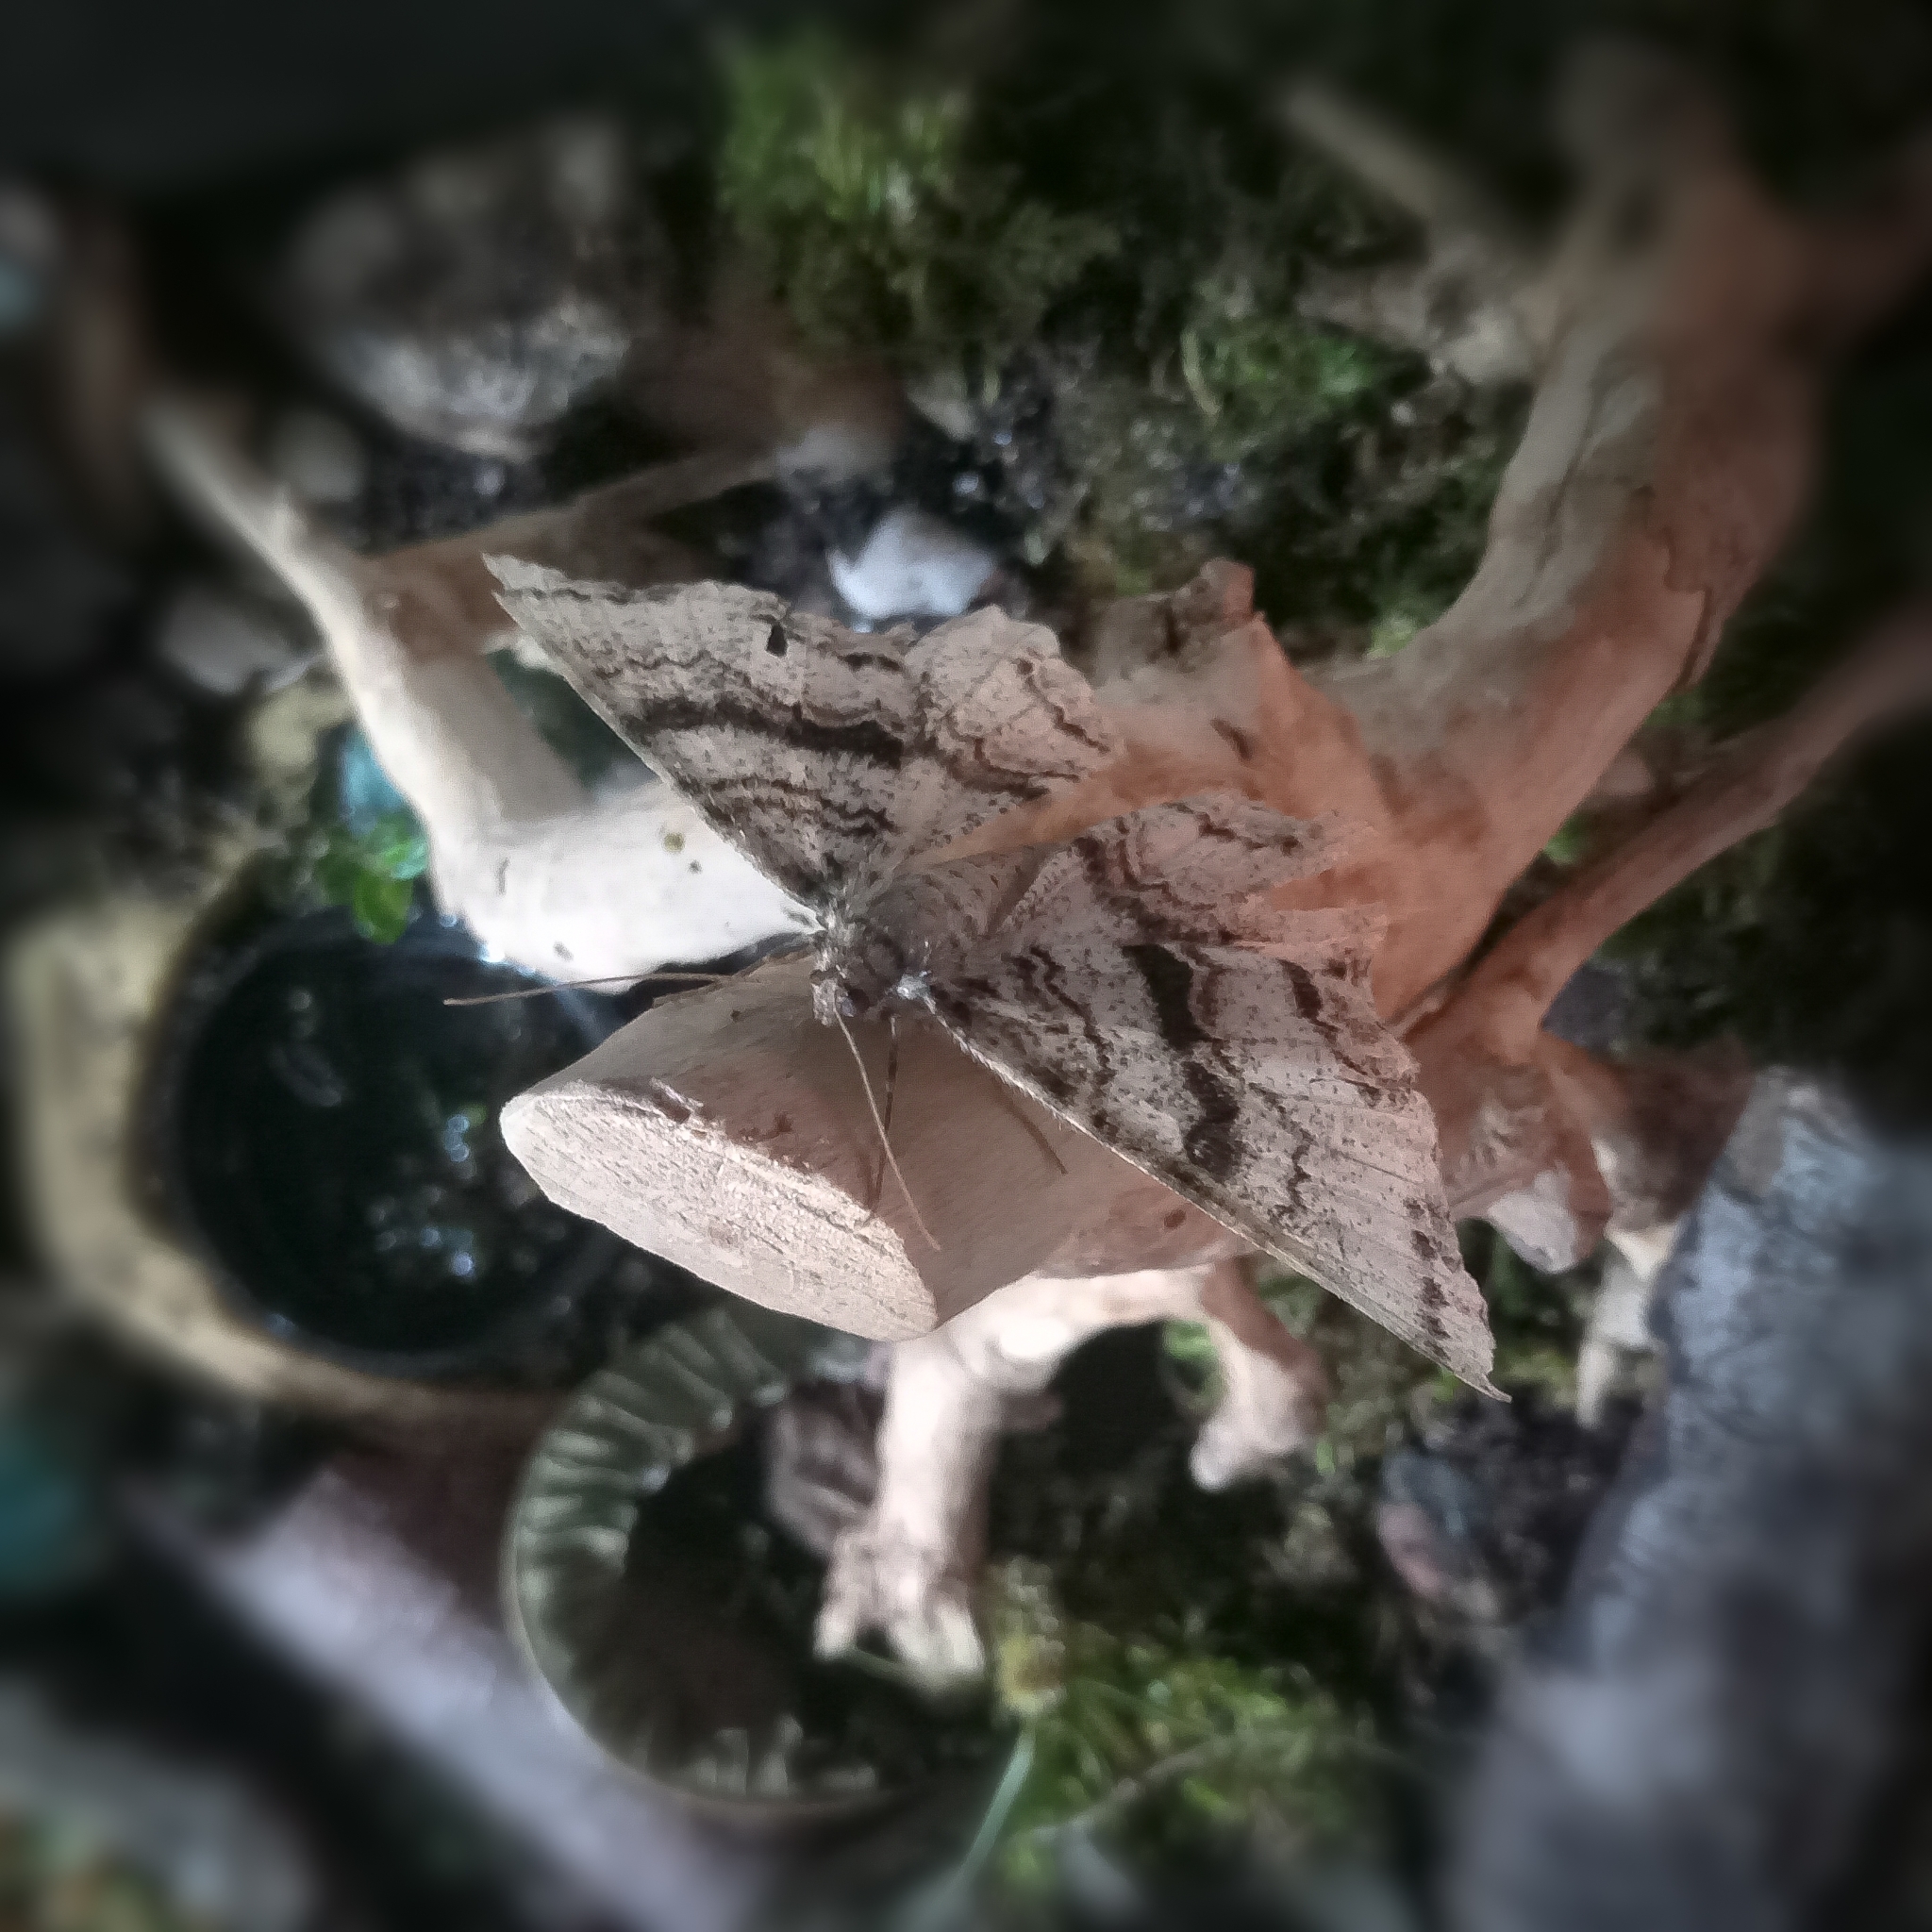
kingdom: Animalia
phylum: Arthropoda
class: Insecta
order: Lepidoptera
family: Geometridae
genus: Epimecis
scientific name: Epimecis hortaria
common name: Tulip-tree beauty
